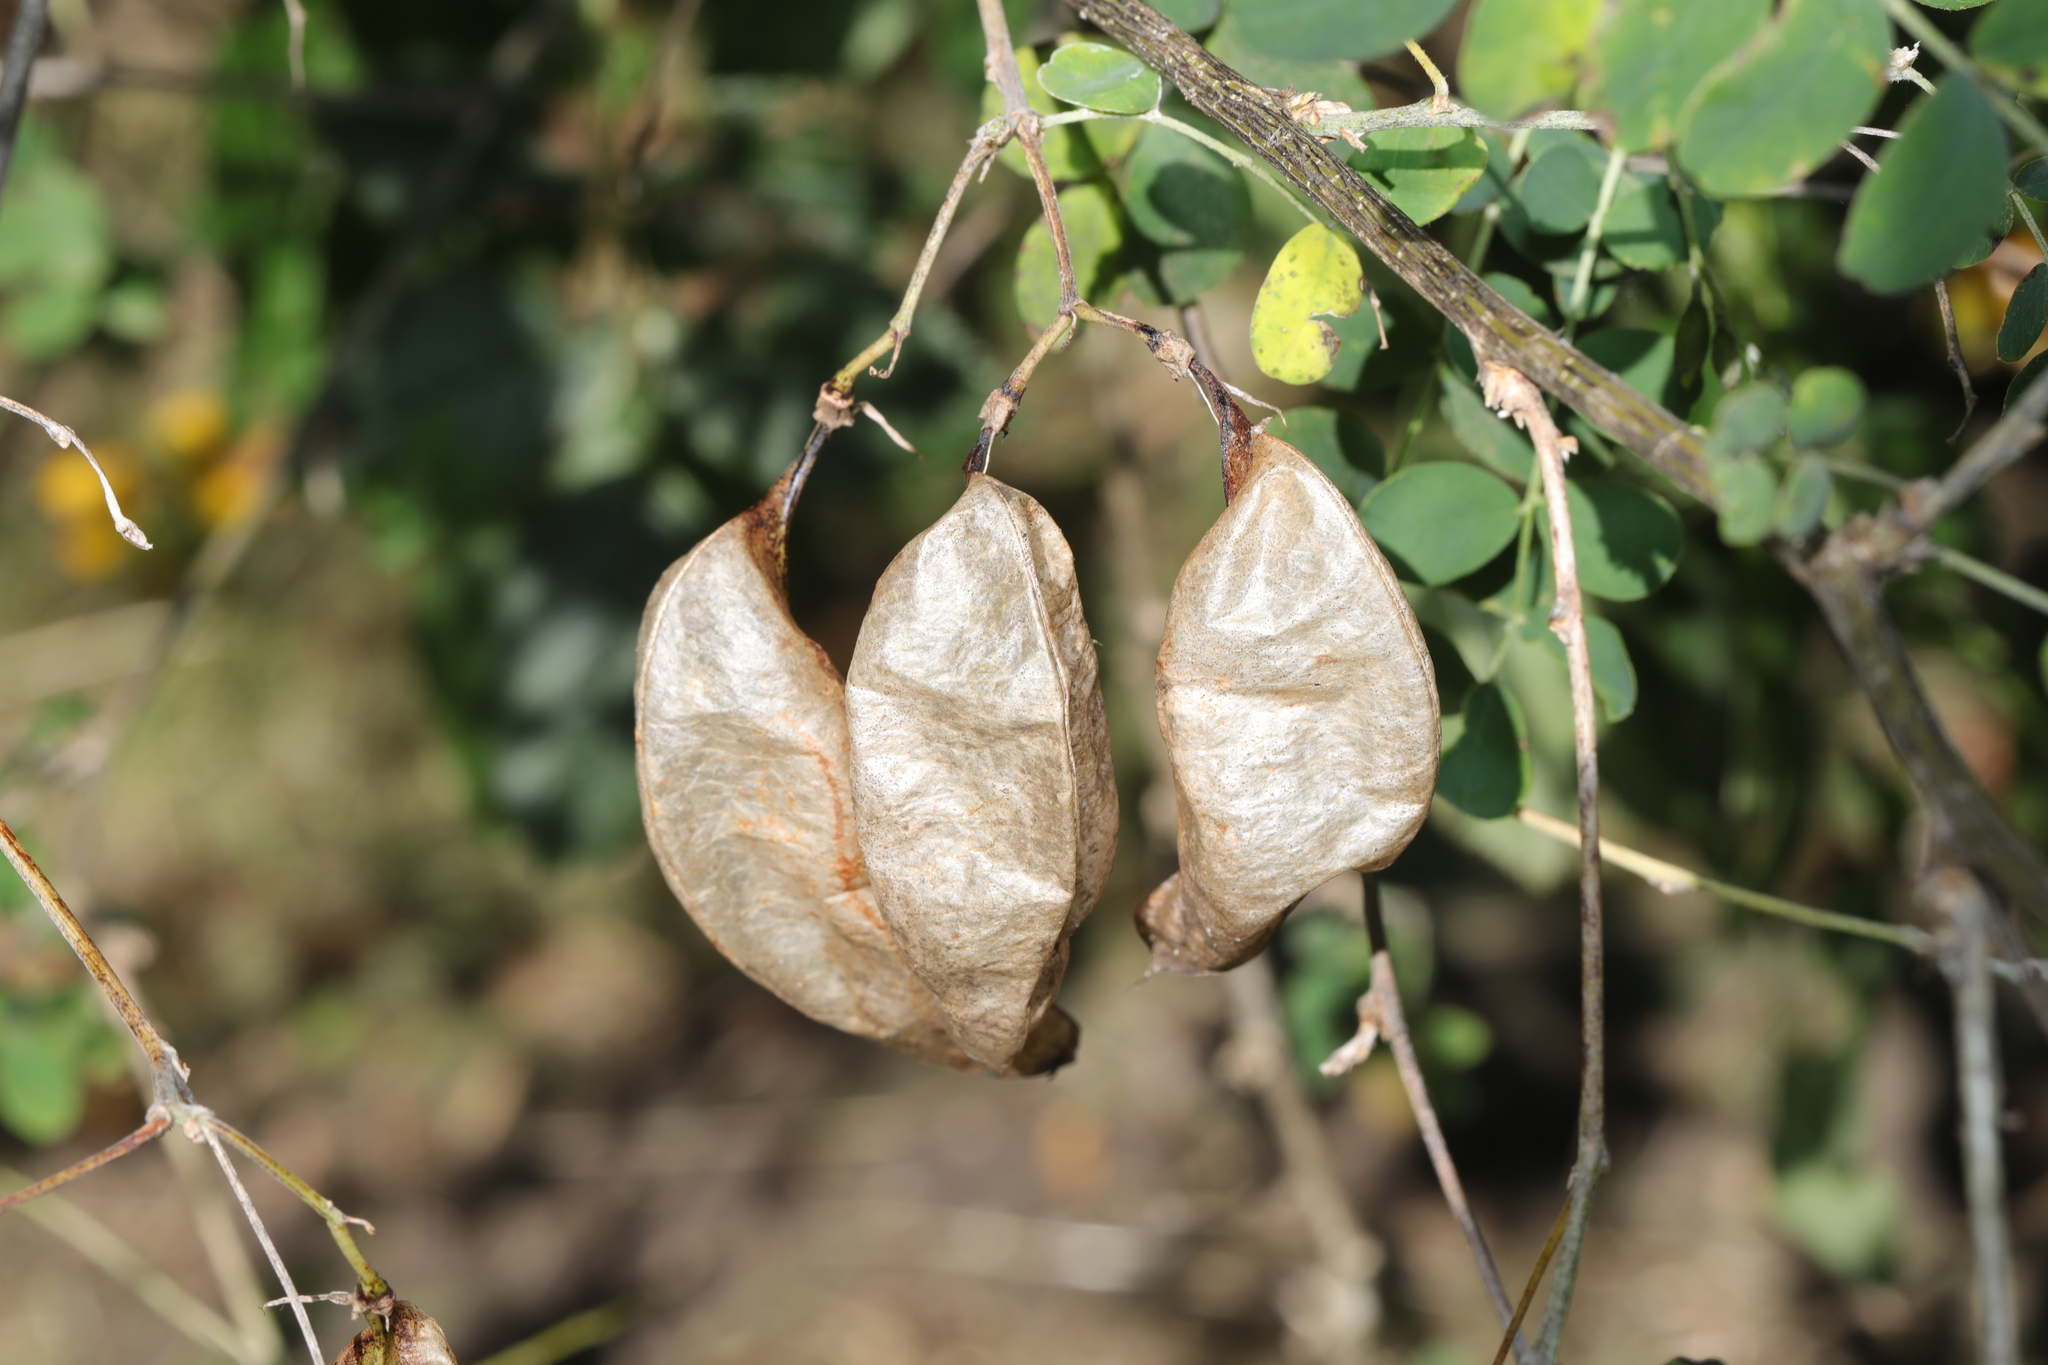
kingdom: Plantae
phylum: Tracheophyta
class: Magnoliopsida
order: Fabales
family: Fabaceae
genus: Colutea
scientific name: Colutea arborescens
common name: Bladder-senna
